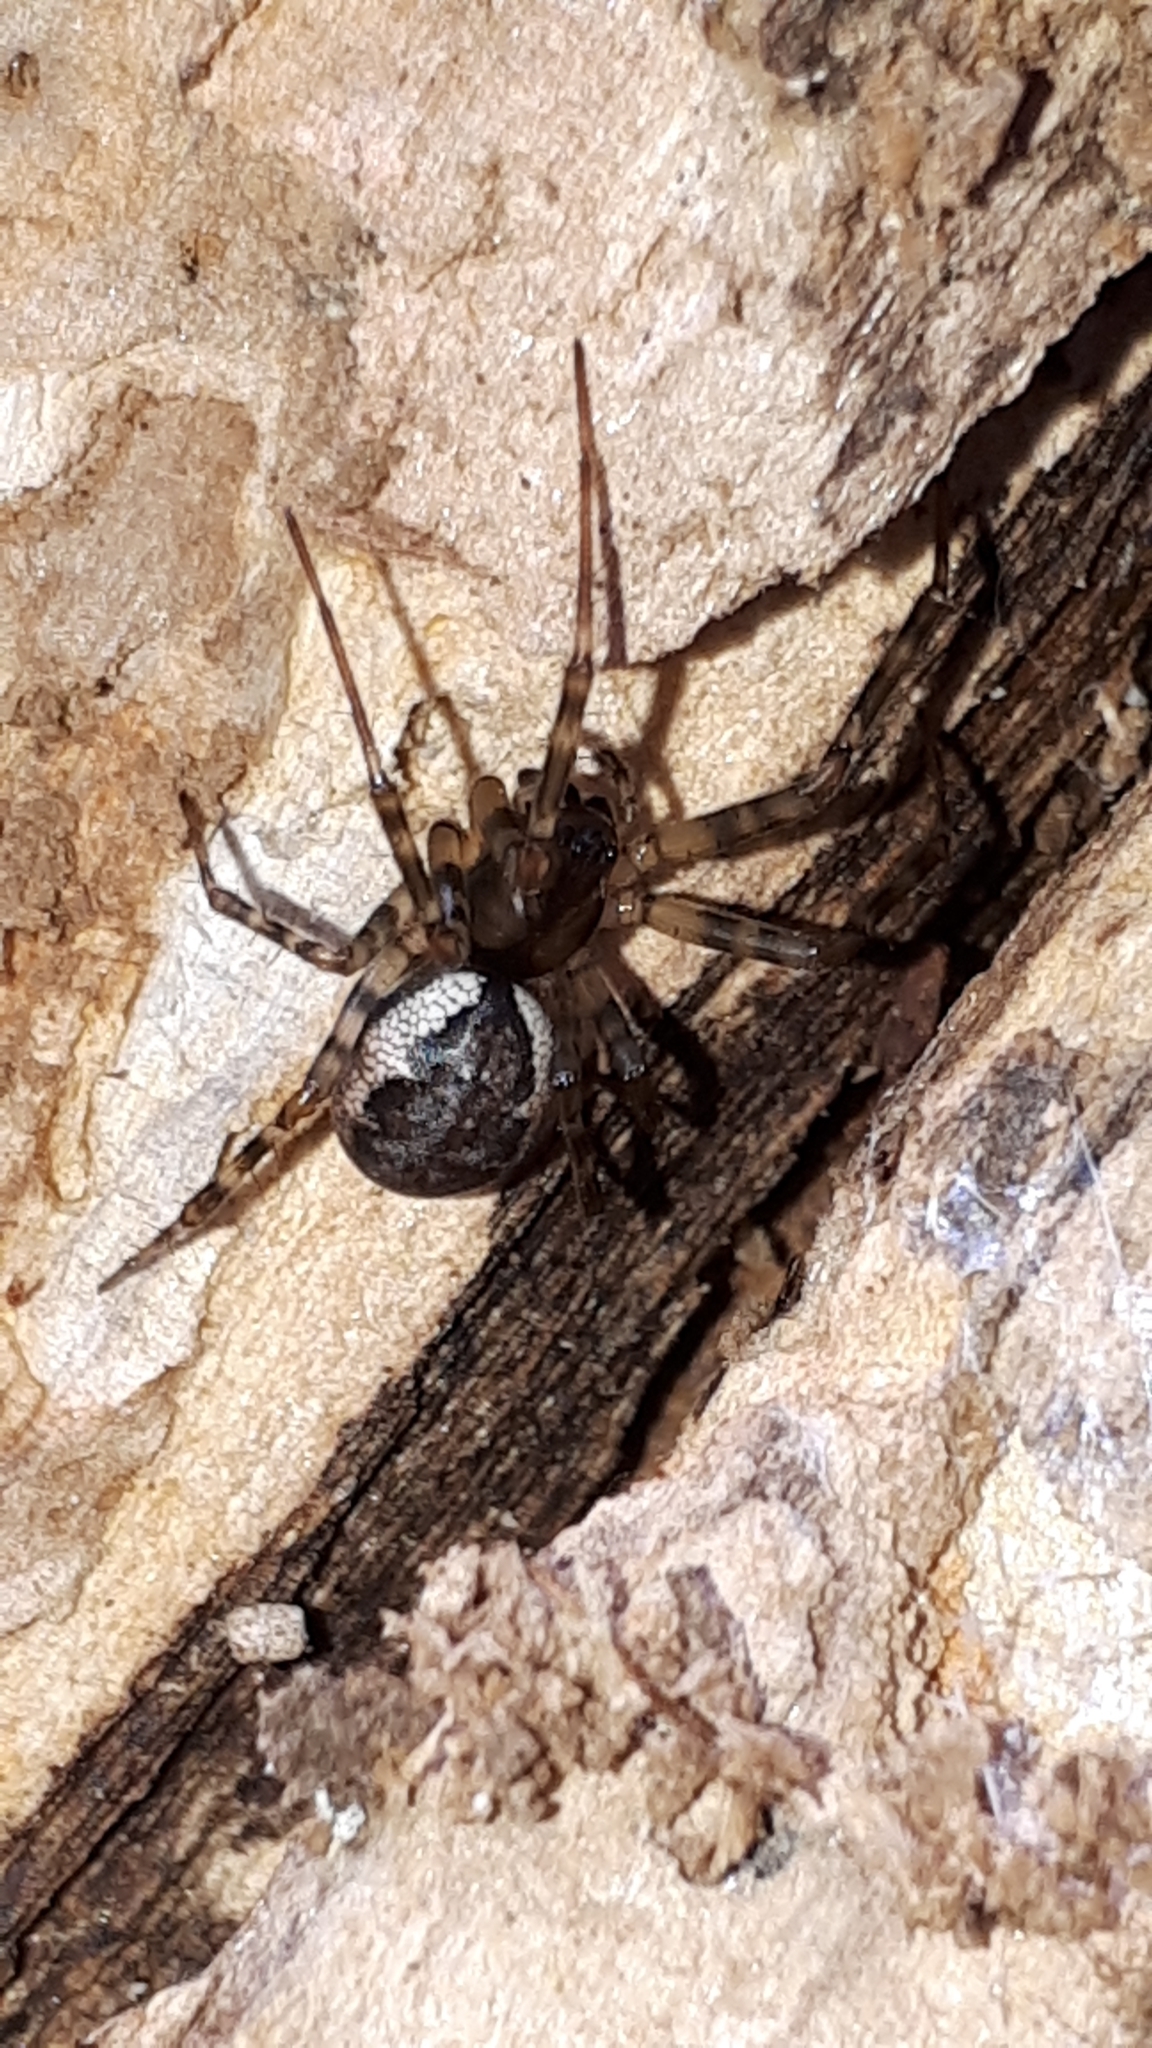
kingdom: Animalia
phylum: Arthropoda
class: Arachnida
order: Araneae
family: Linyphiidae
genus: Neriene
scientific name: Neriene montana
